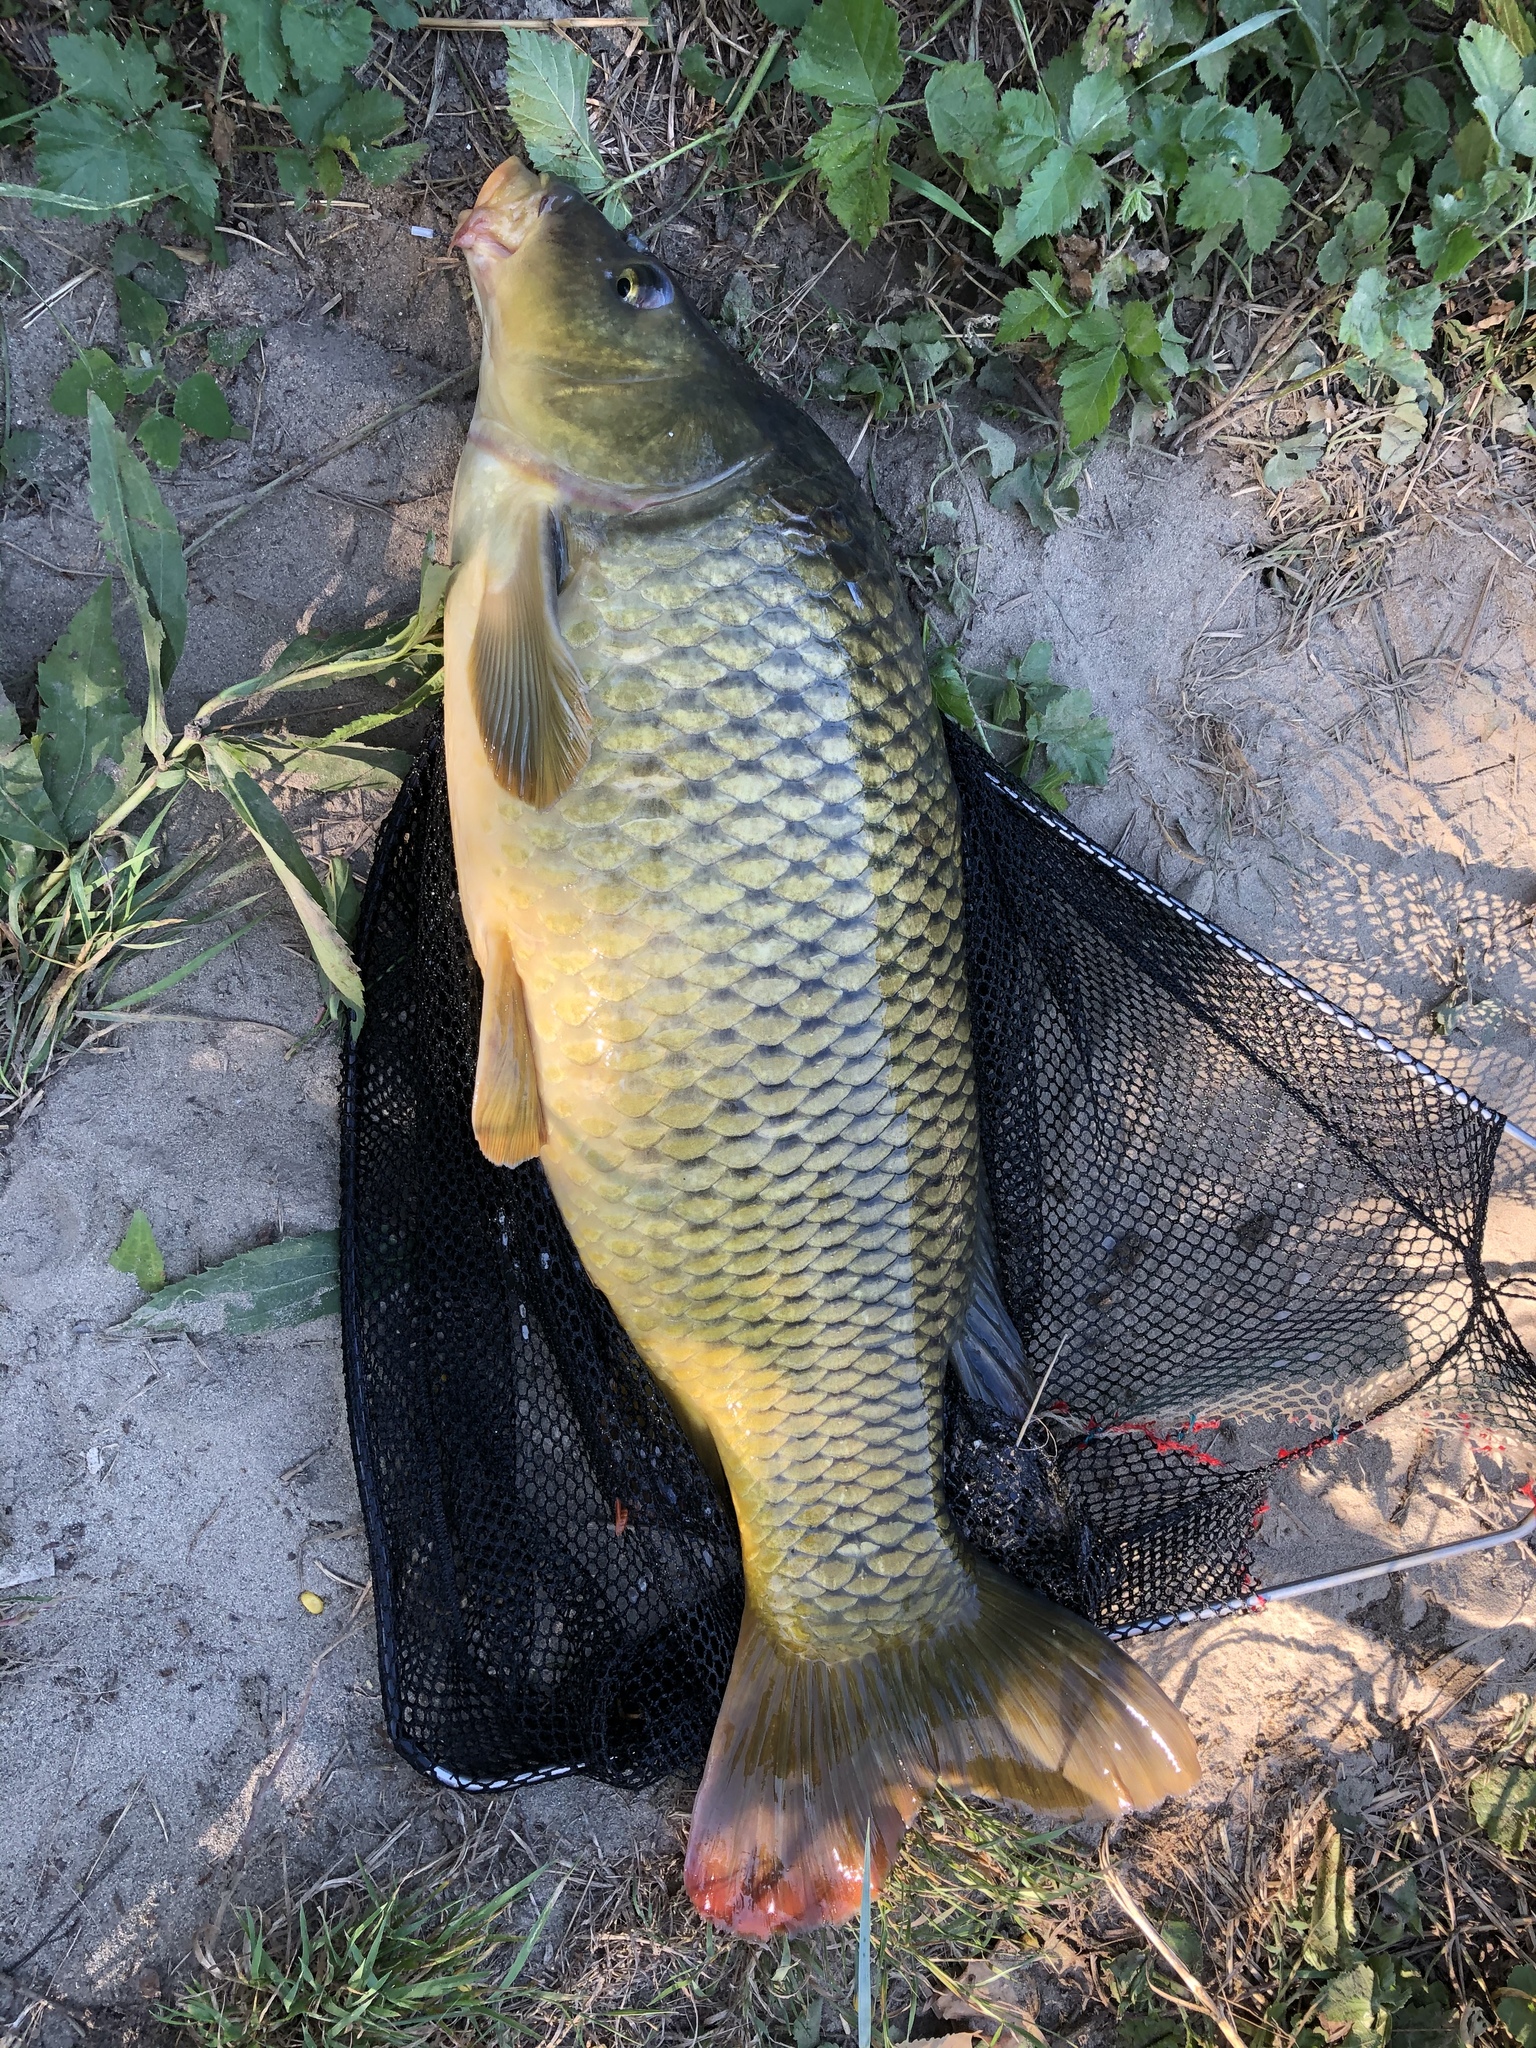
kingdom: Animalia
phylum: Chordata
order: Cypriniformes
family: Cyprinidae
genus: Cyprinus
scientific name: Cyprinus carpio
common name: Common carp
